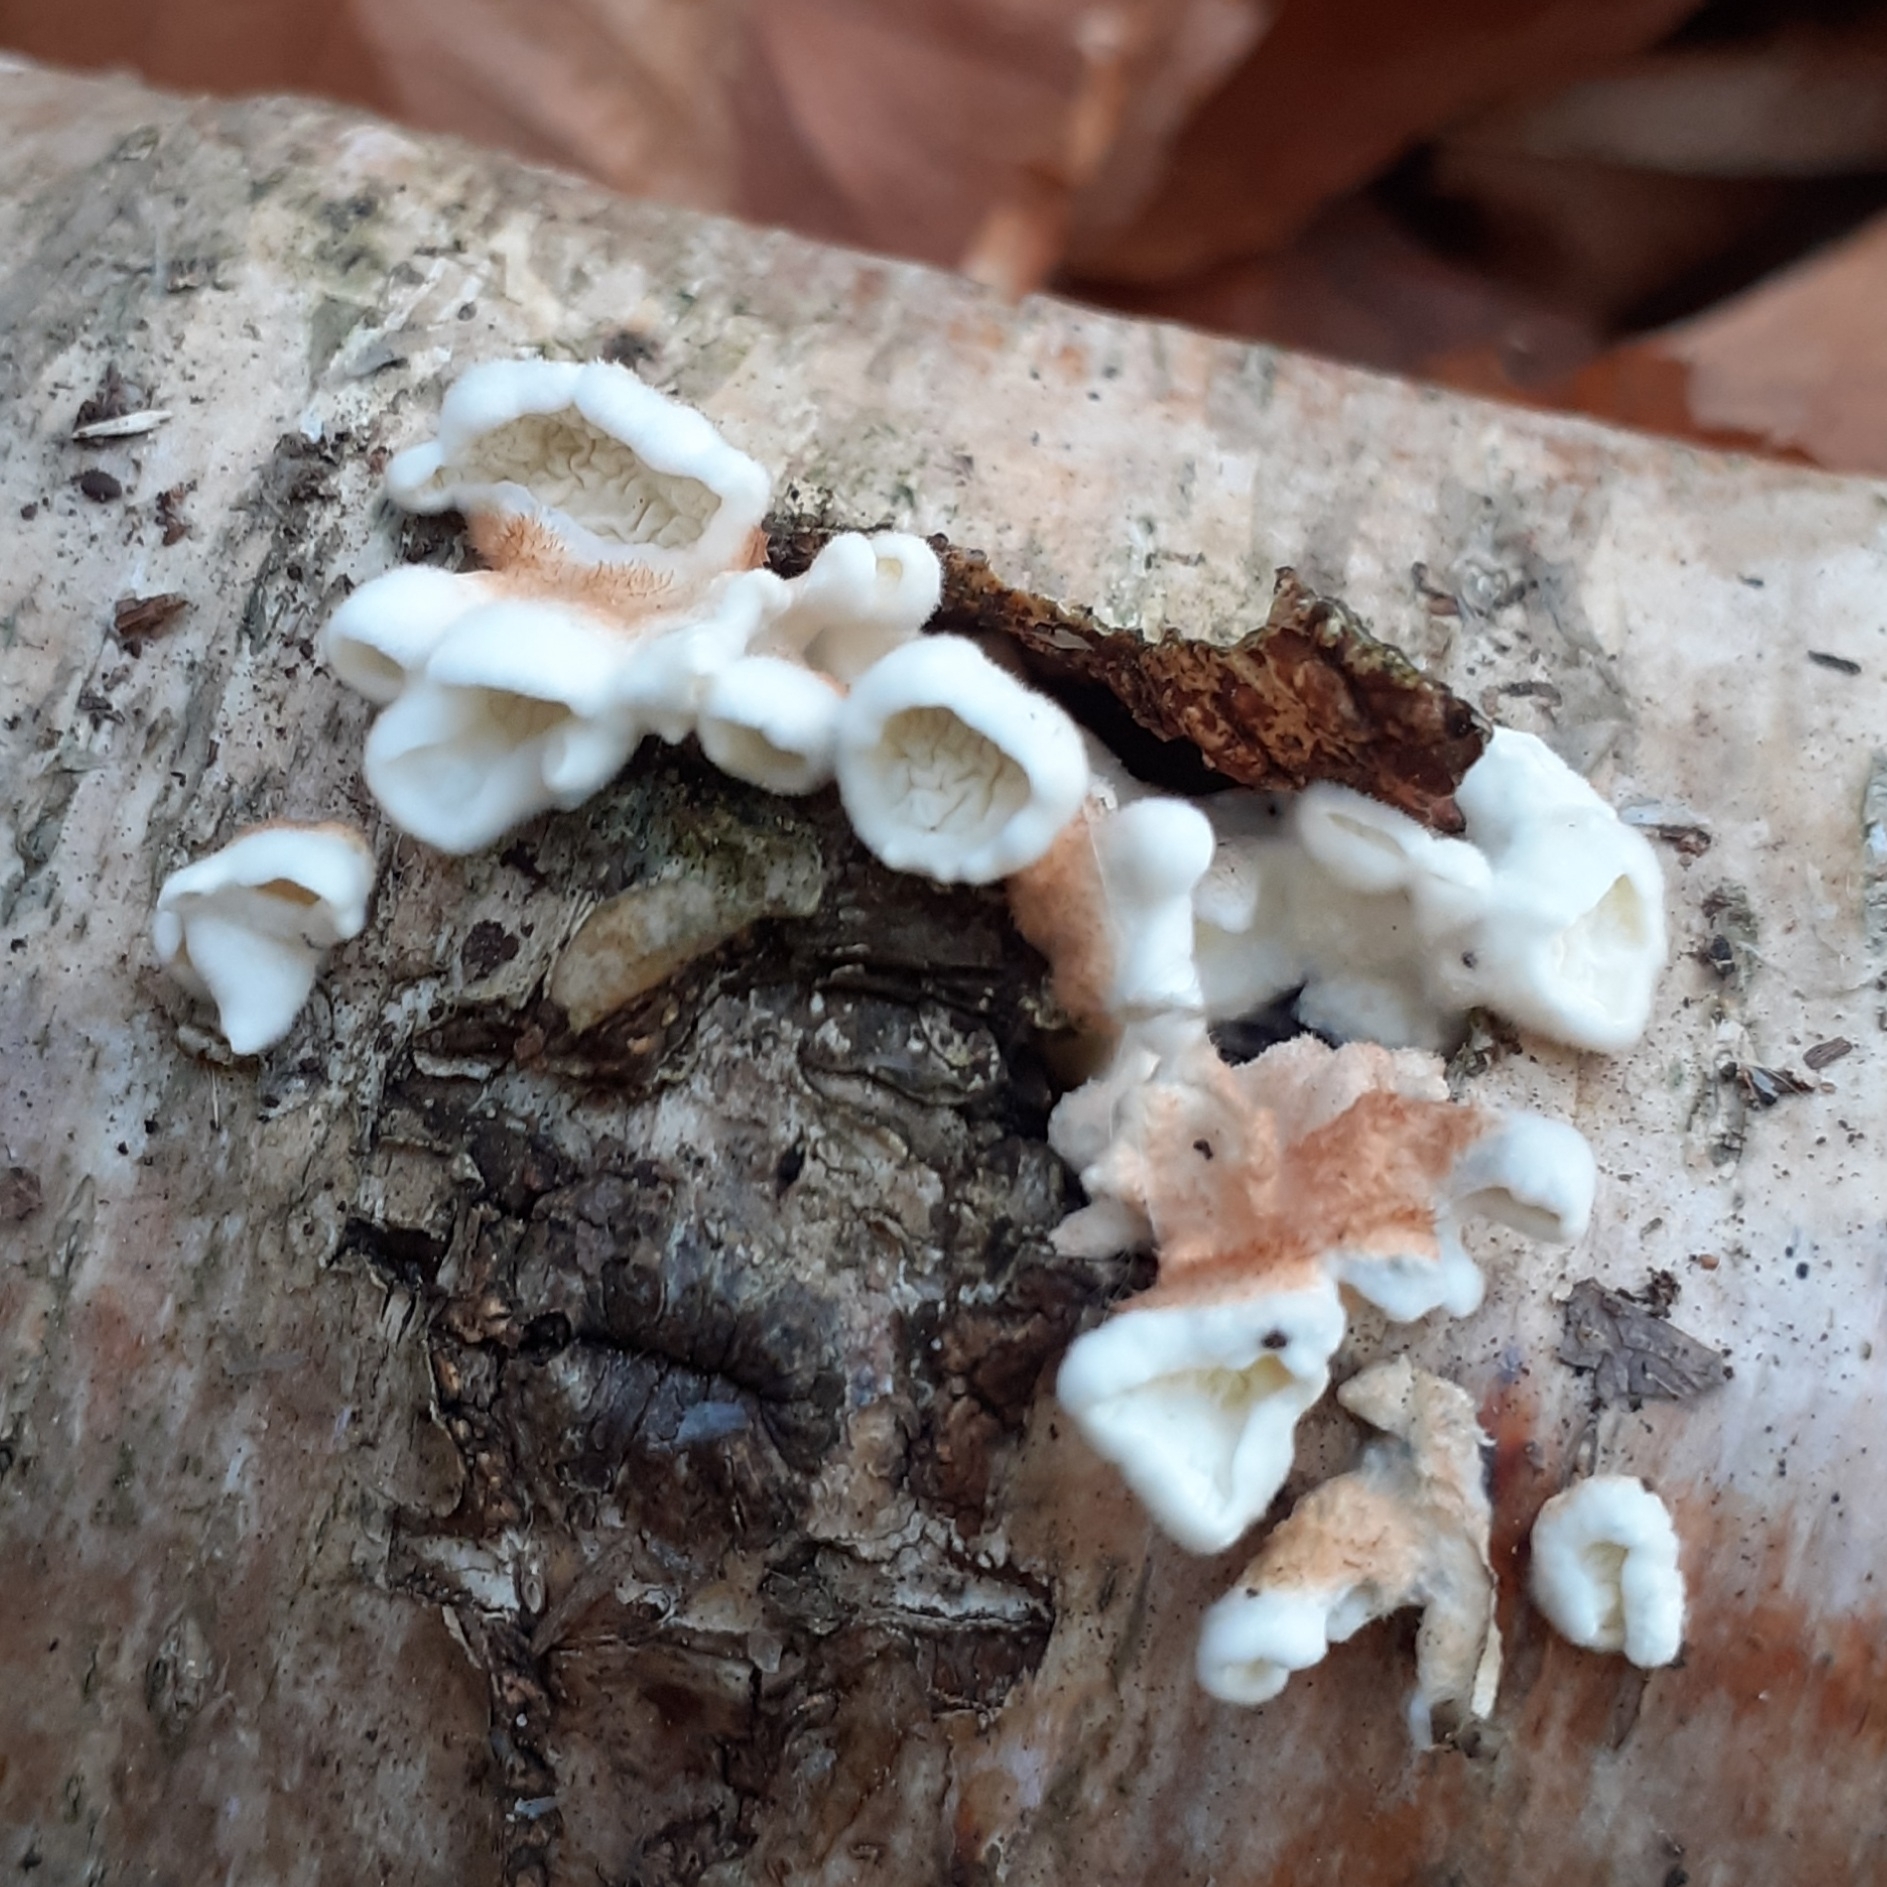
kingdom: Fungi
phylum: Basidiomycota
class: Agaricomycetes
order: Amylocorticiales
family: Amylocorticiaceae
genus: Plicaturopsis
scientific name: Plicaturopsis crispa
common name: Crimped gill
